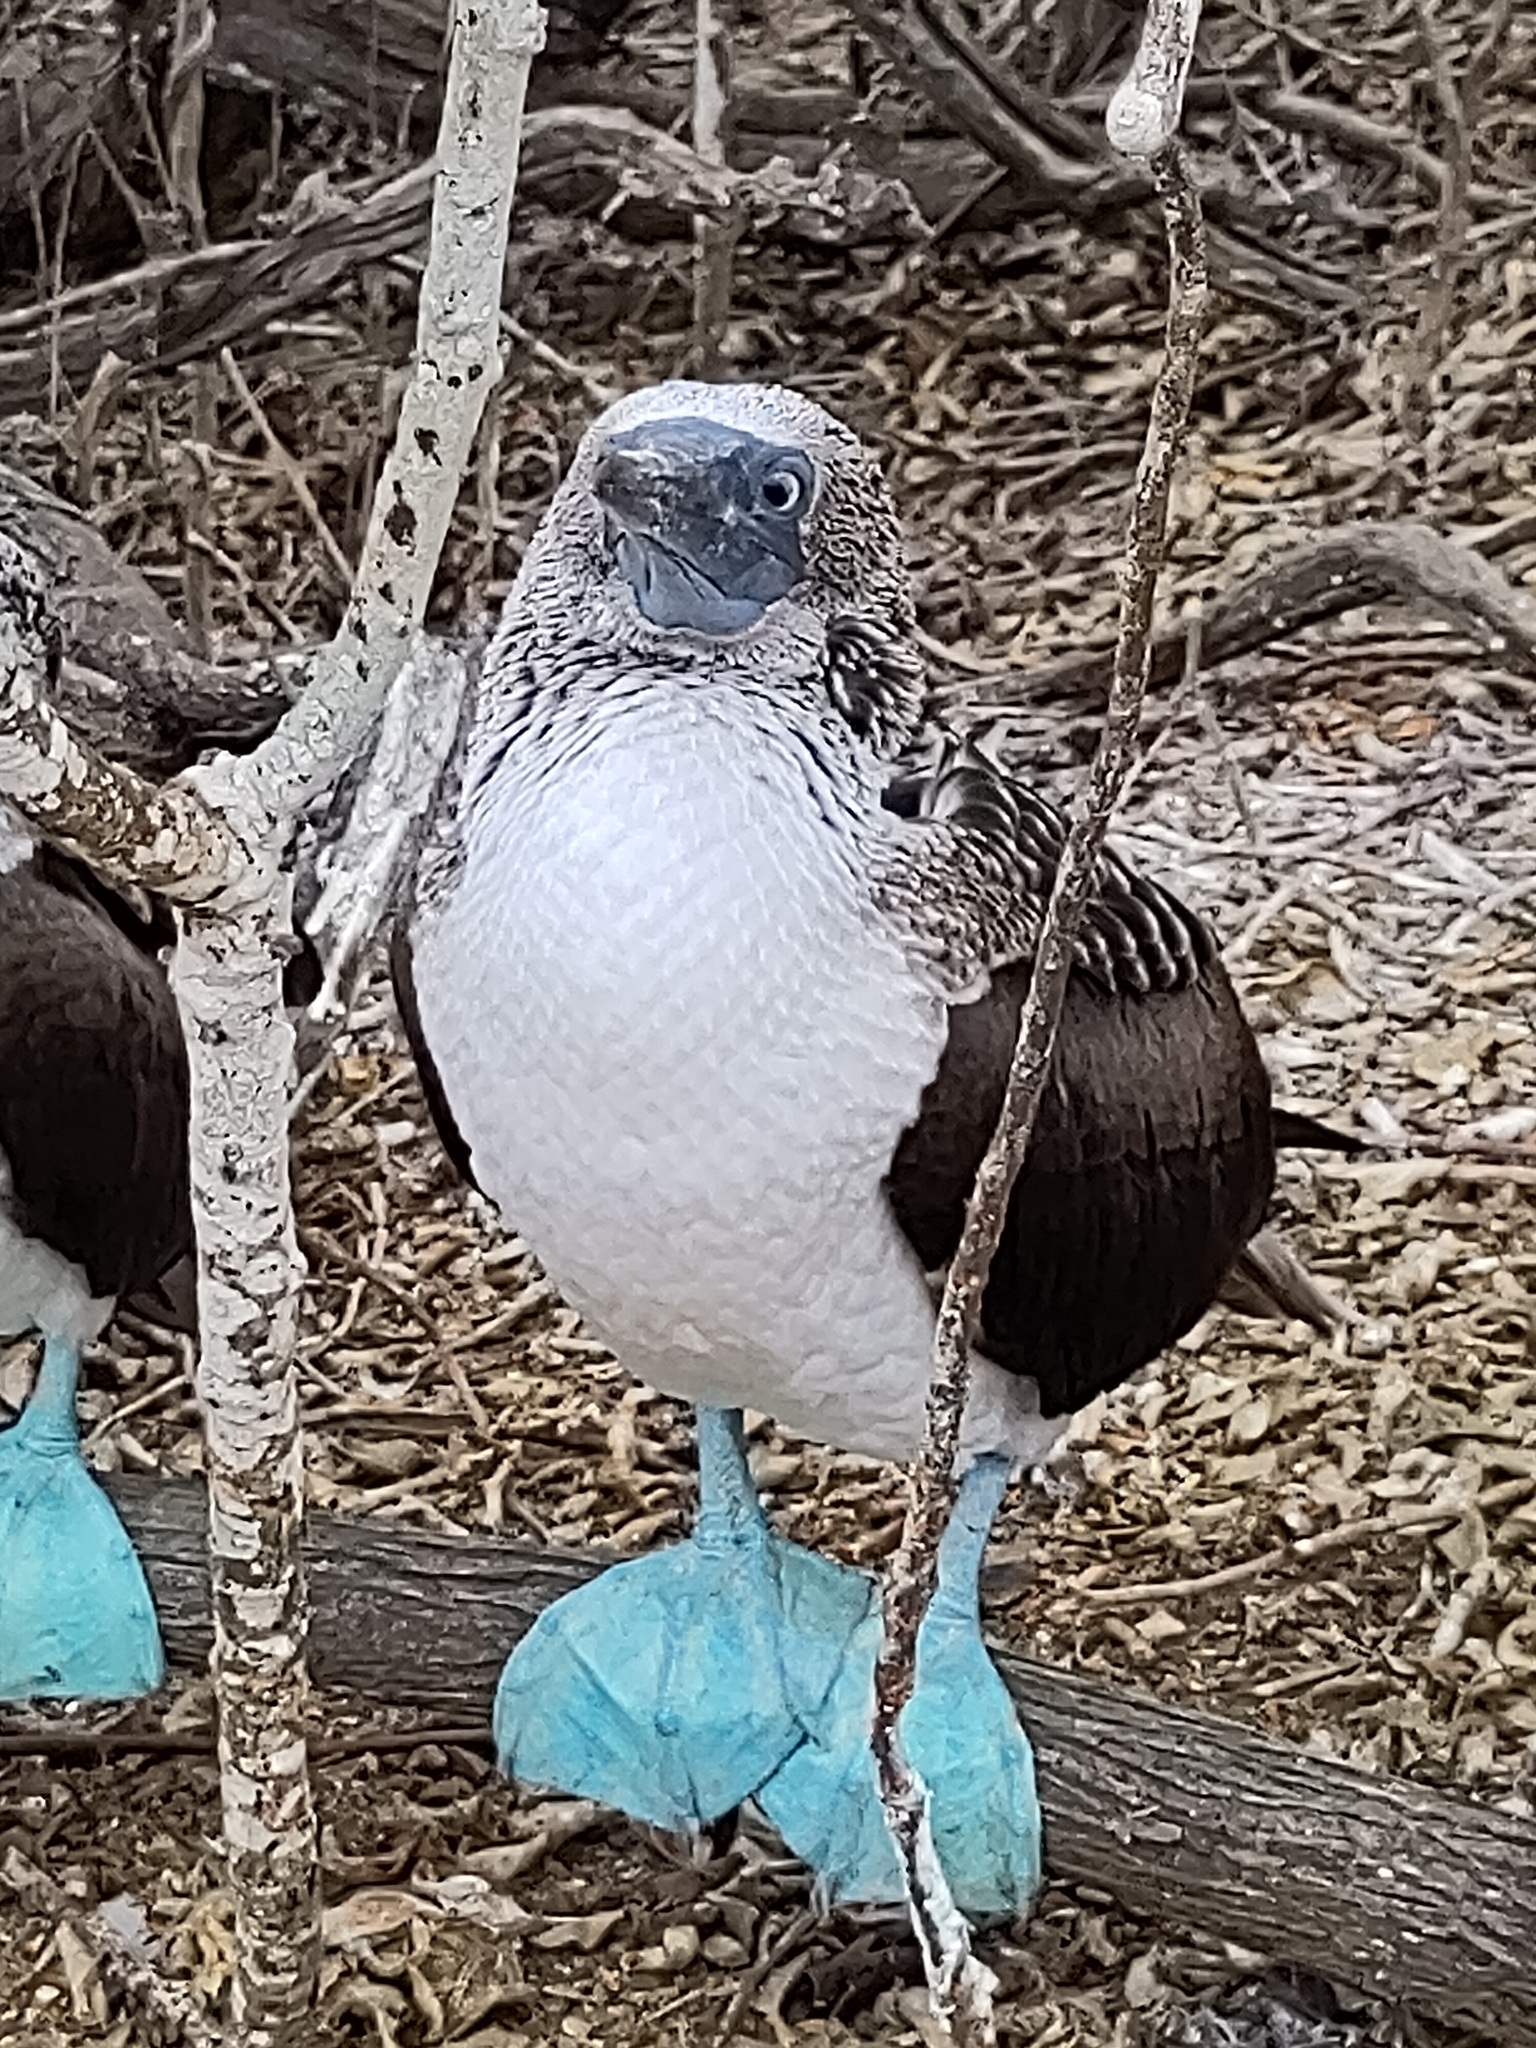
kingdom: Animalia
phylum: Chordata
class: Aves
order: Suliformes
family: Sulidae
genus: Sula
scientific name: Sula nebouxii
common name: Blue-footed booby
